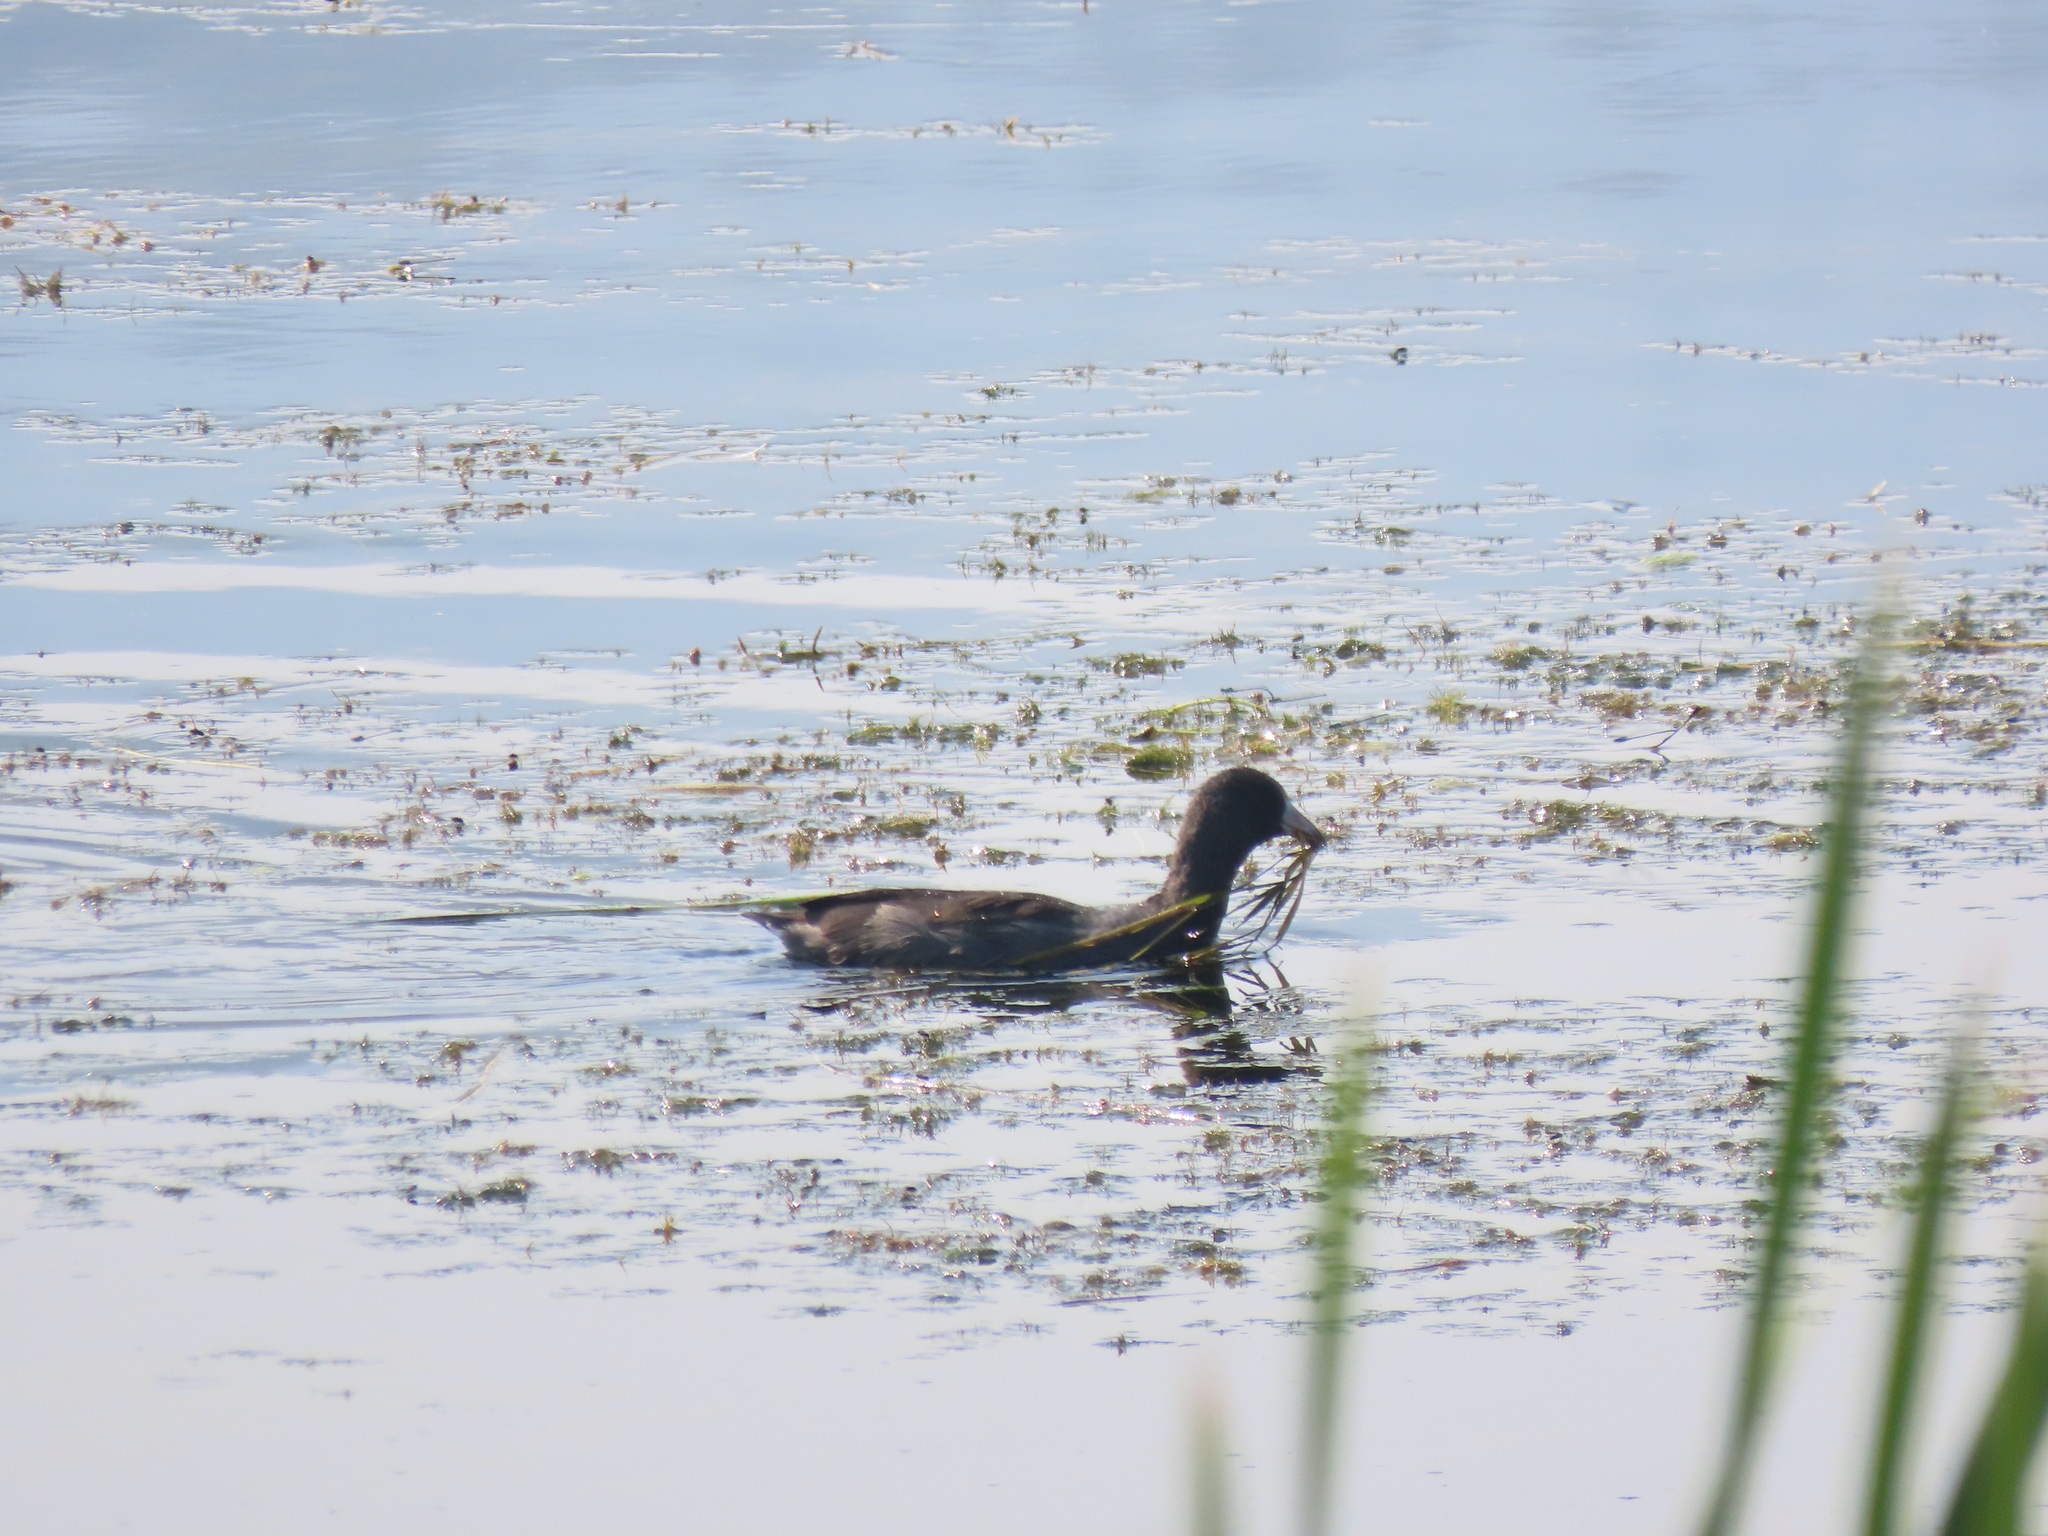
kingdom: Animalia
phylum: Chordata
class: Aves
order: Gruiformes
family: Rallidae
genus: Fulica
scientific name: Fulica americana
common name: American coot
